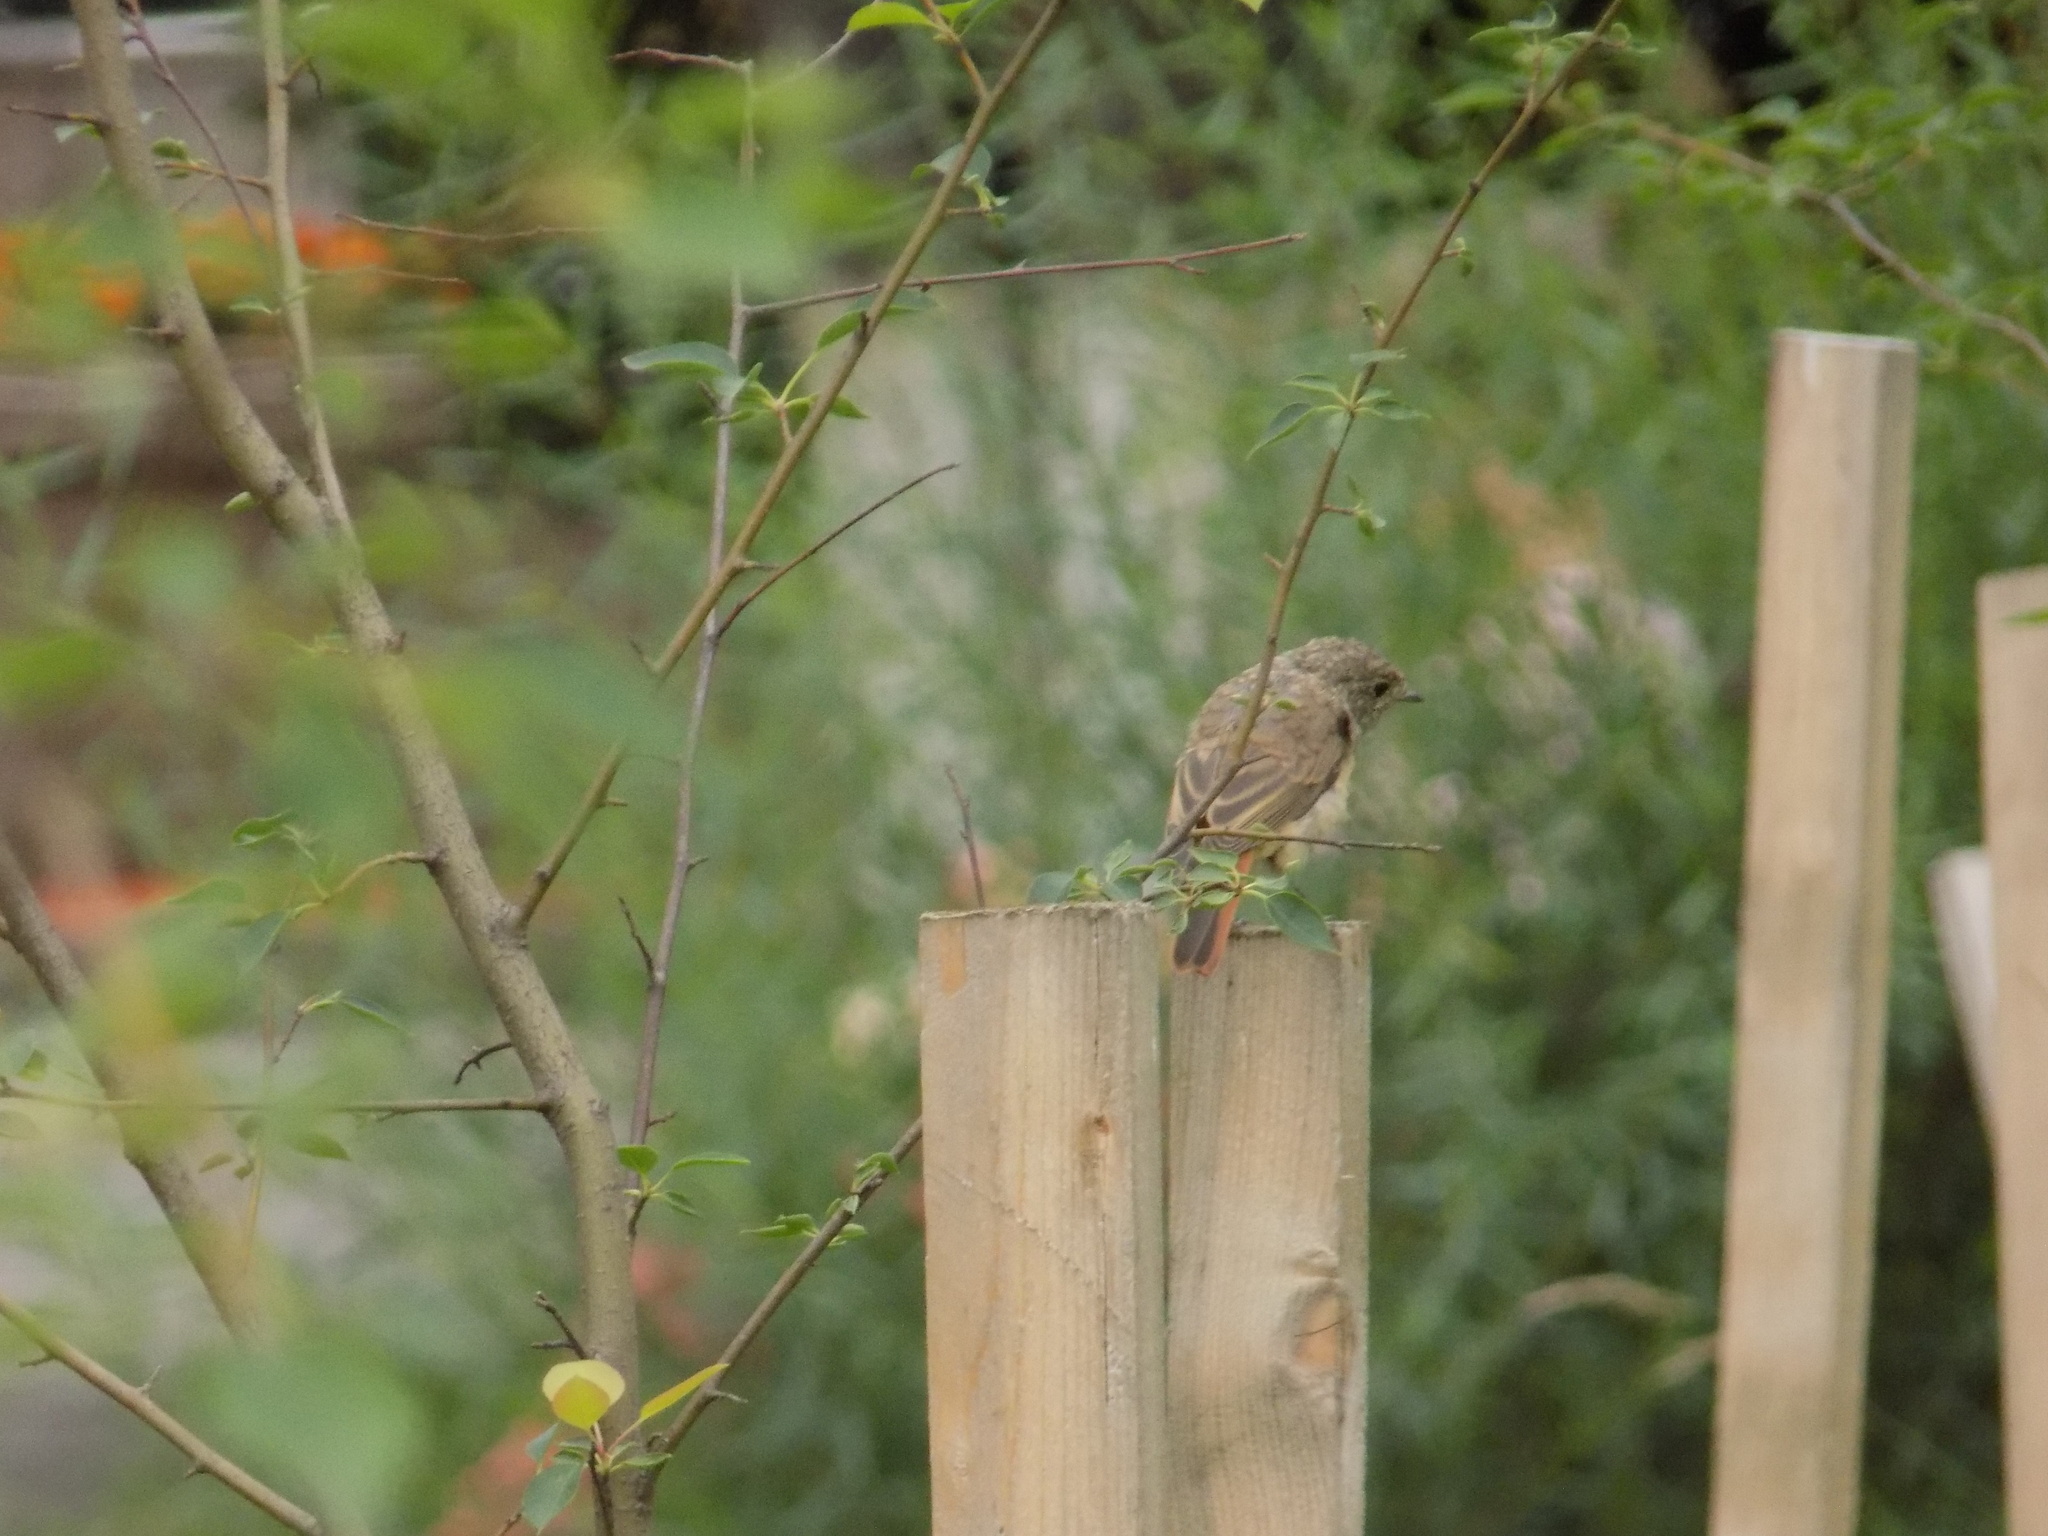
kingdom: Animalia
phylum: Chordata
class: Aves
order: Passeriformes
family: Muscicapidae
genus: Phoenicurus
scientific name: Phoenicurus phoenicurus
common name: Common redstart
